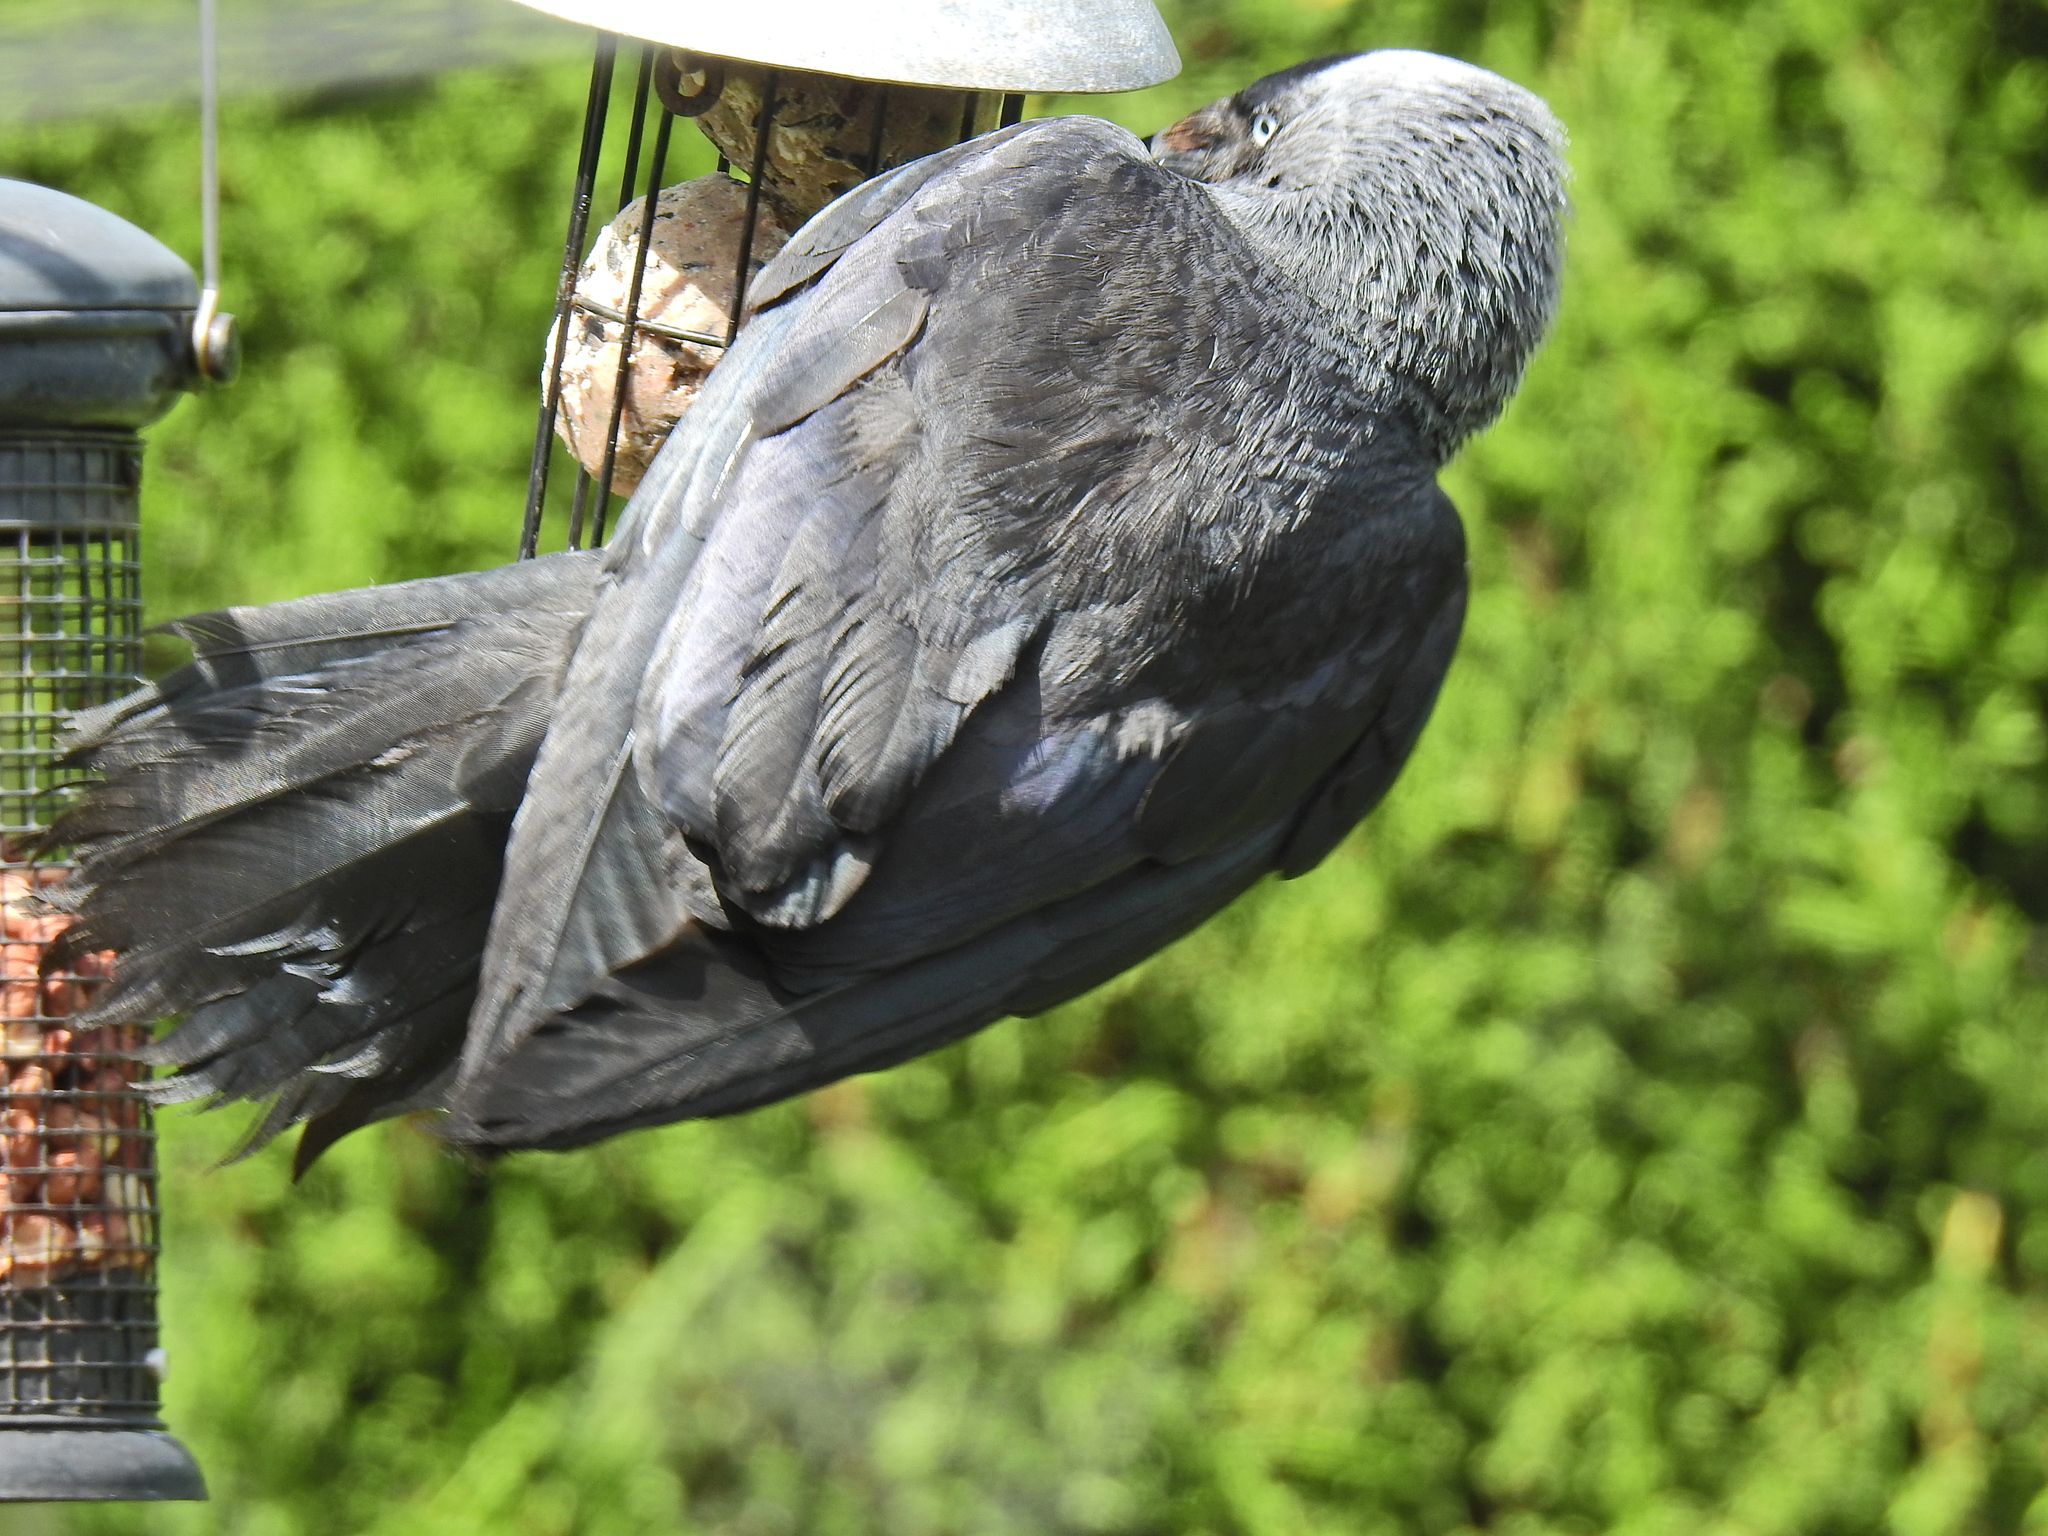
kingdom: Animalia
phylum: Chordata
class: Aves
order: Passeriformes
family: Corvidae
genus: Coloeus
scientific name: Coloeus monedula
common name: Western jackdaw
